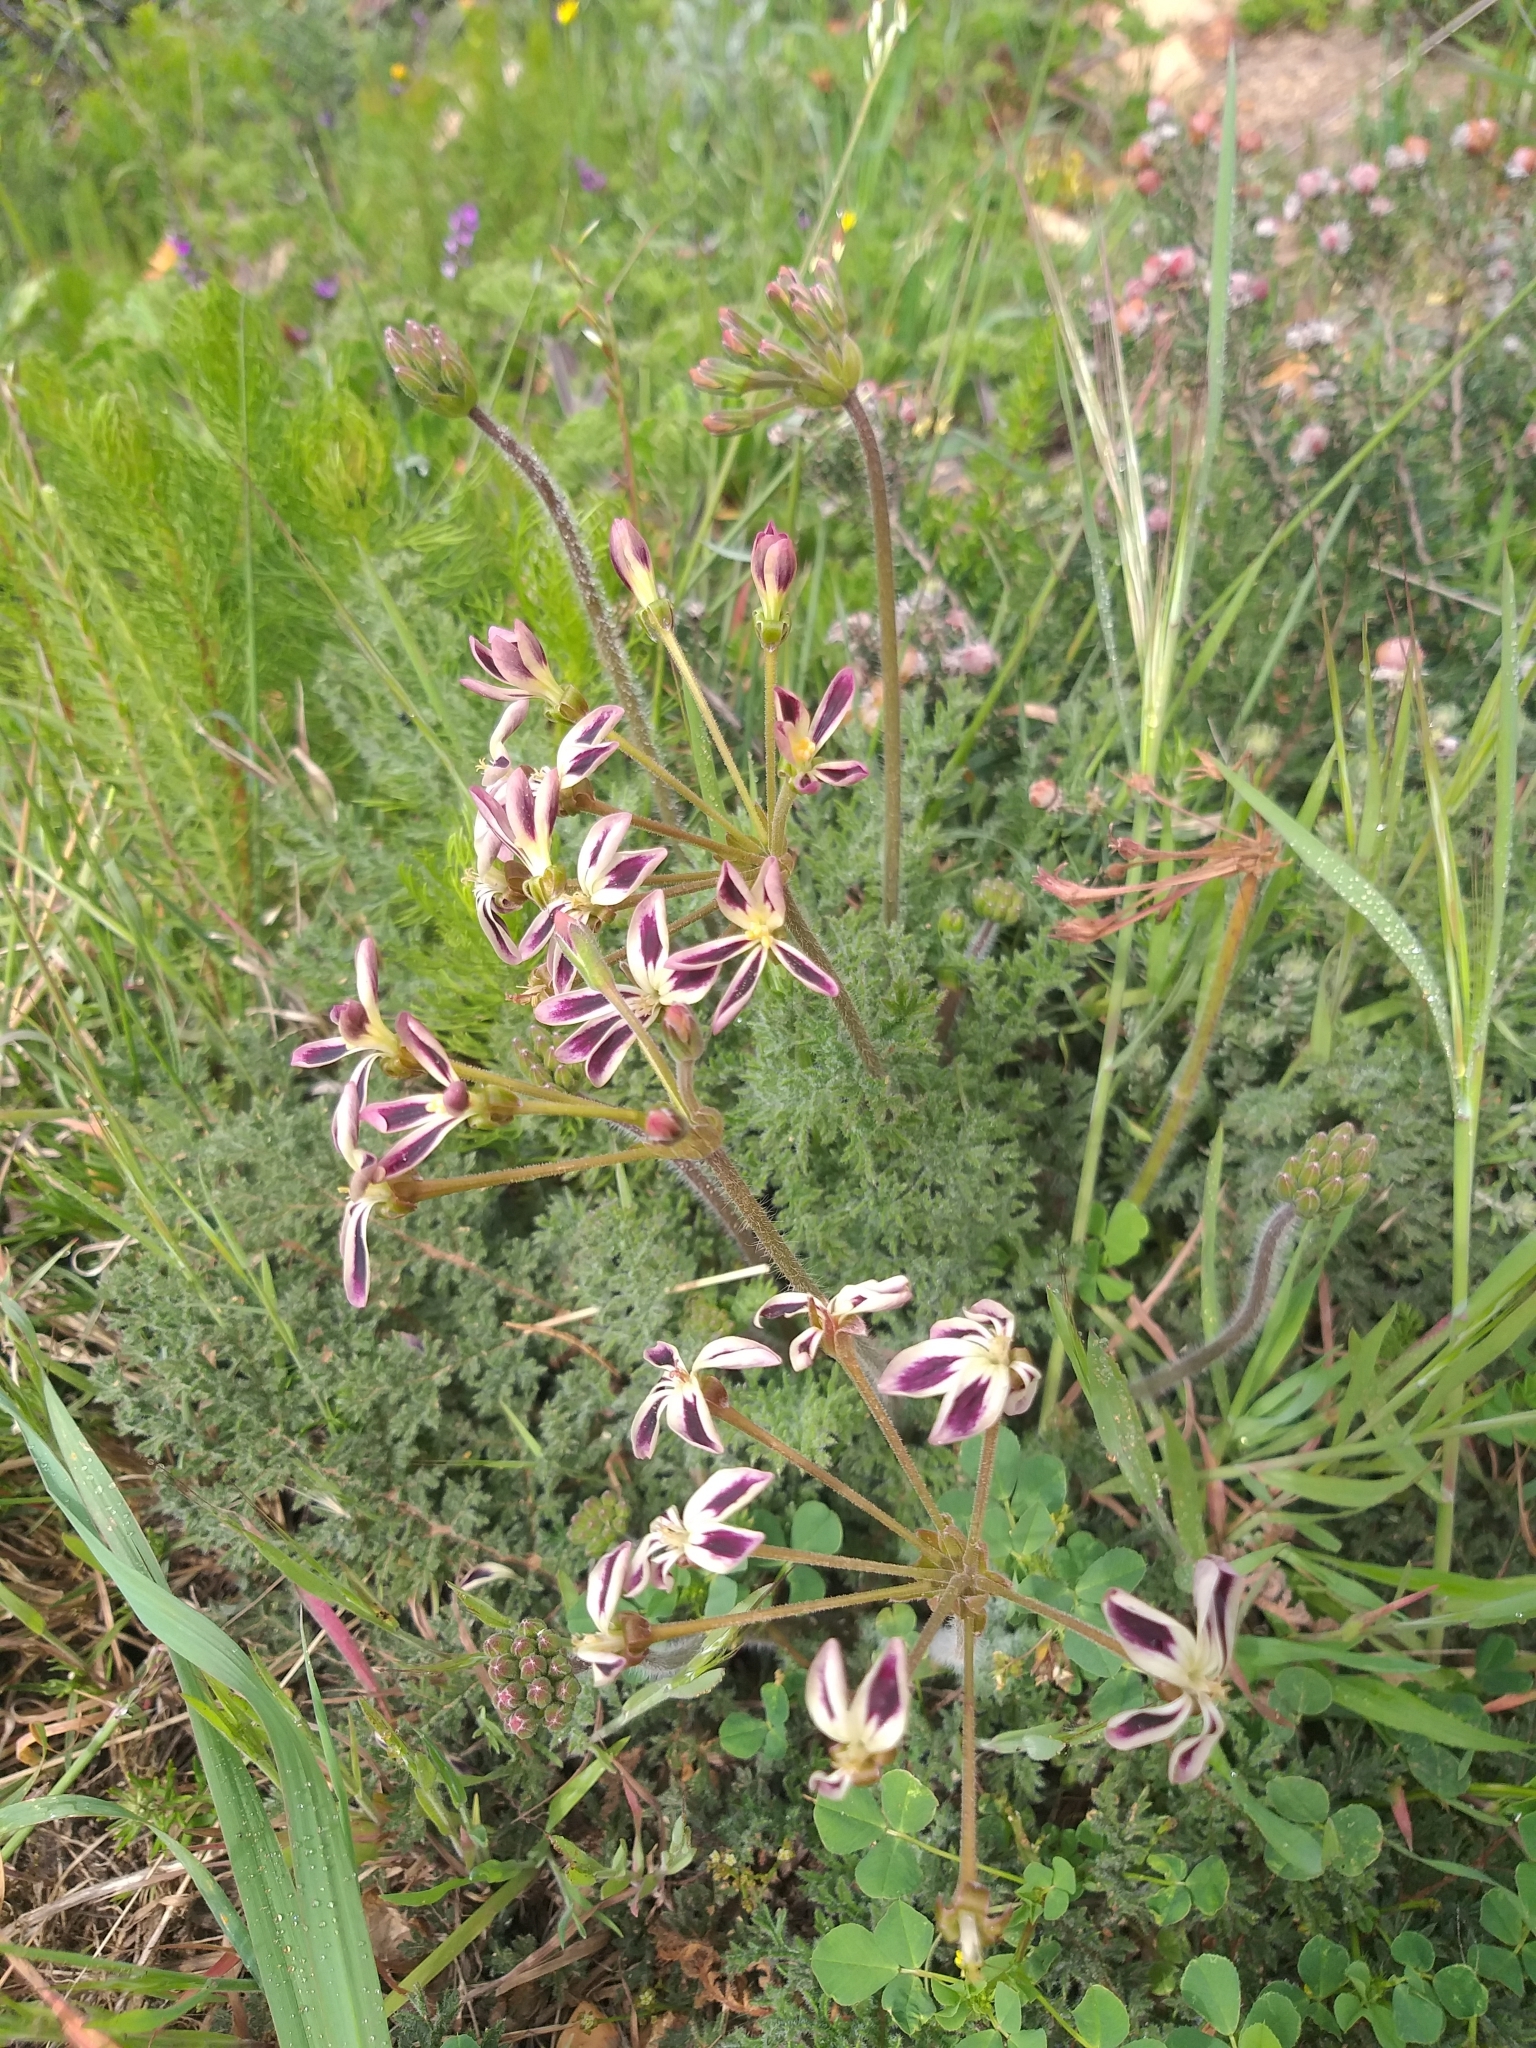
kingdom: Plantae
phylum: Tracheophyta
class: Magnoliopsida
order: Geraniales
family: Geraniaceae
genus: Pelargonium
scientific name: Pelargonium triste
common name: Night-scent pelargonium
